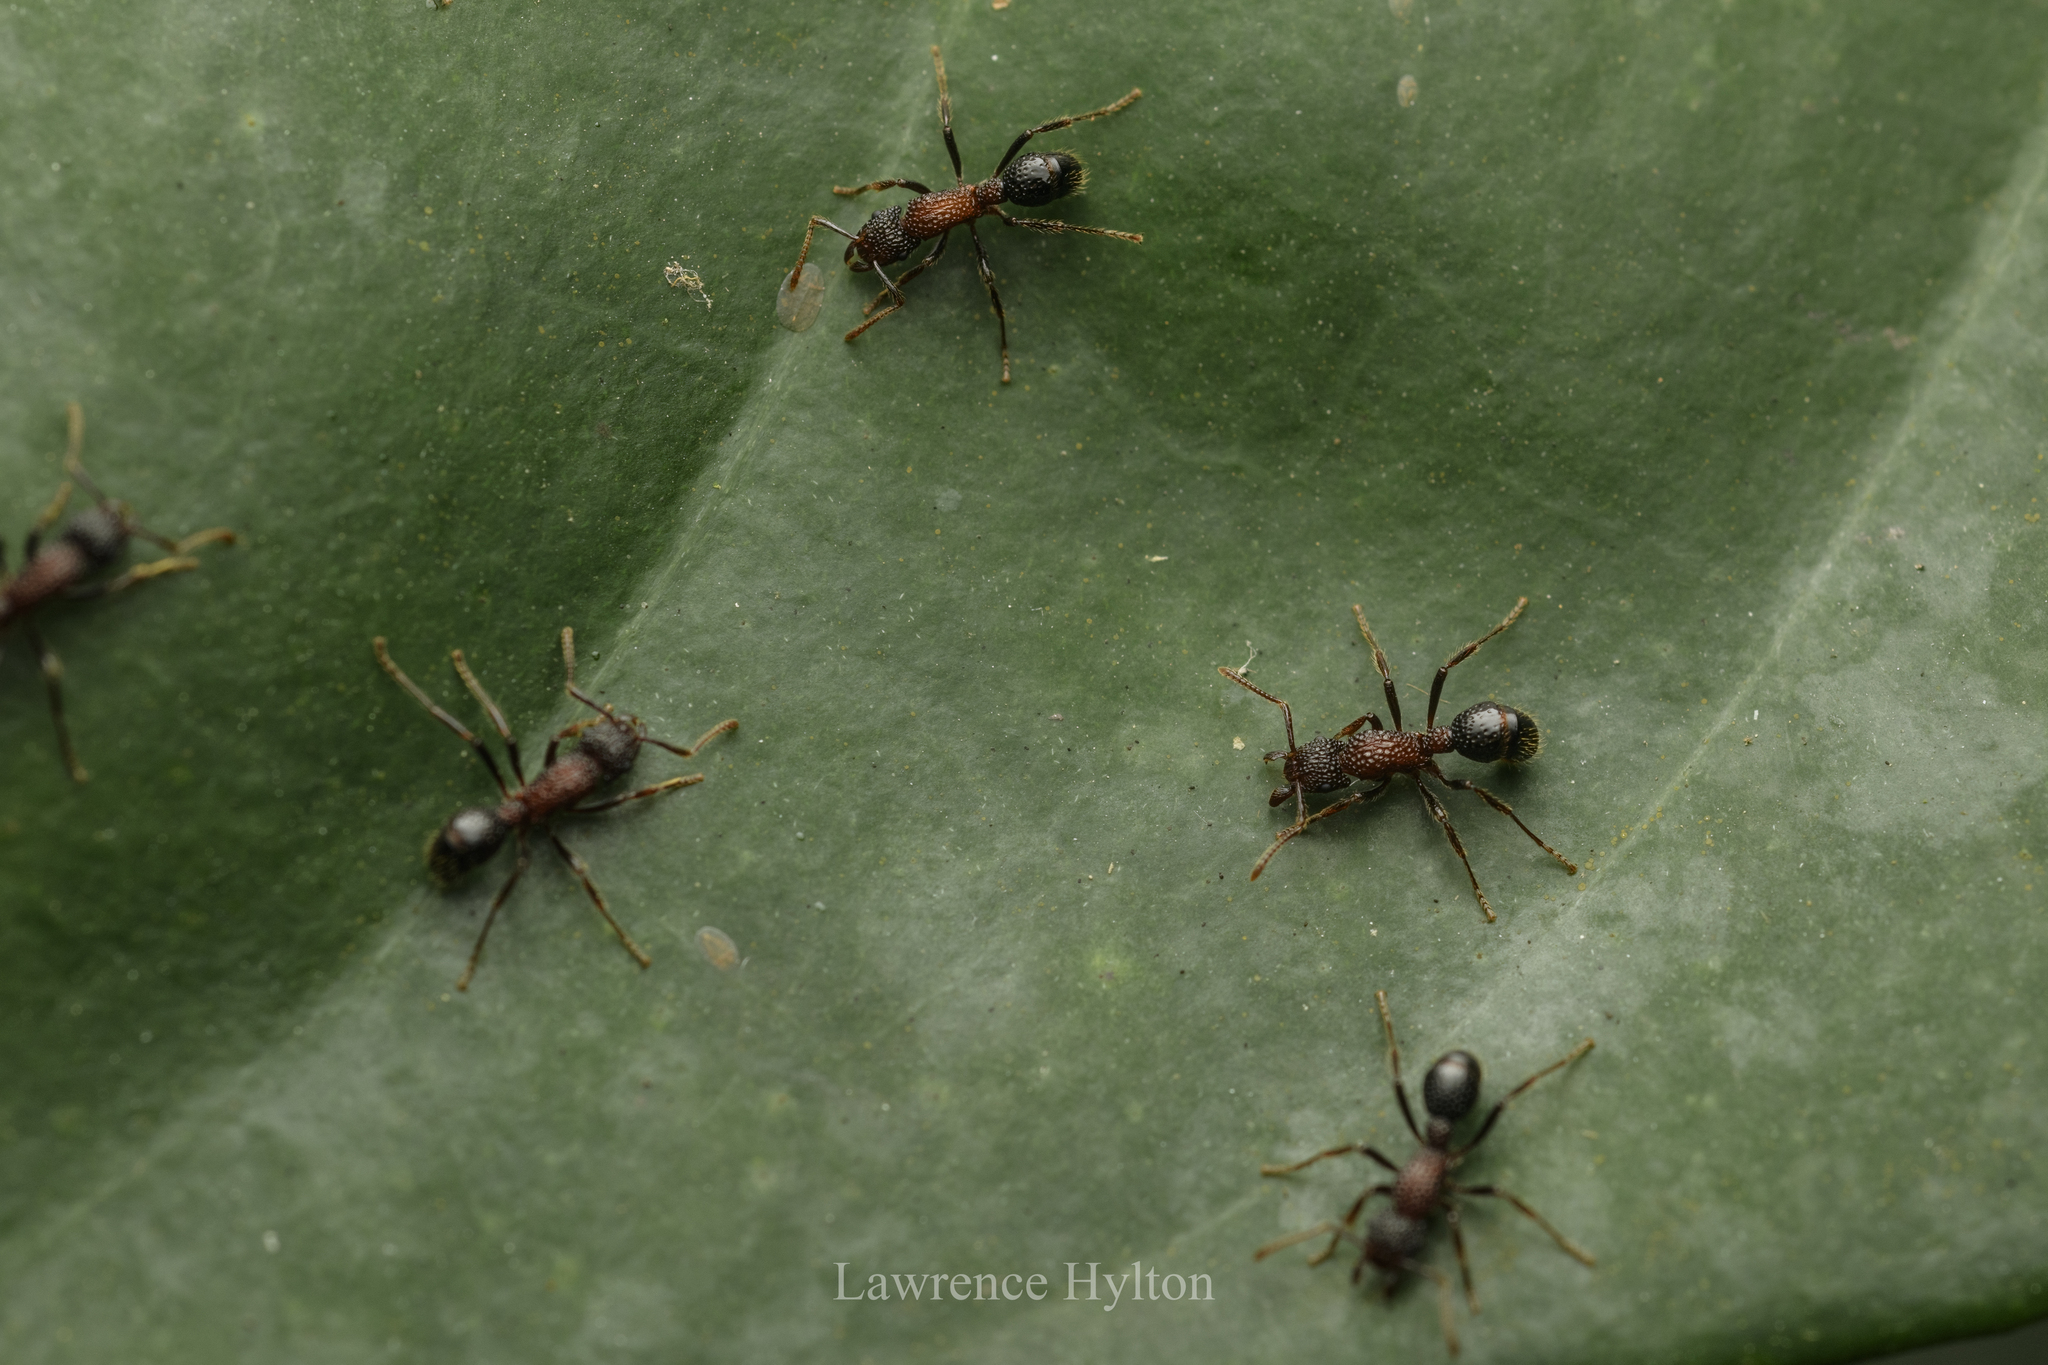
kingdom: Animalia
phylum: Arthropoda
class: Insecta
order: Hymenoptera
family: Formicidae
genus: Stictoponera
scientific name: Stictoponera bicolor
